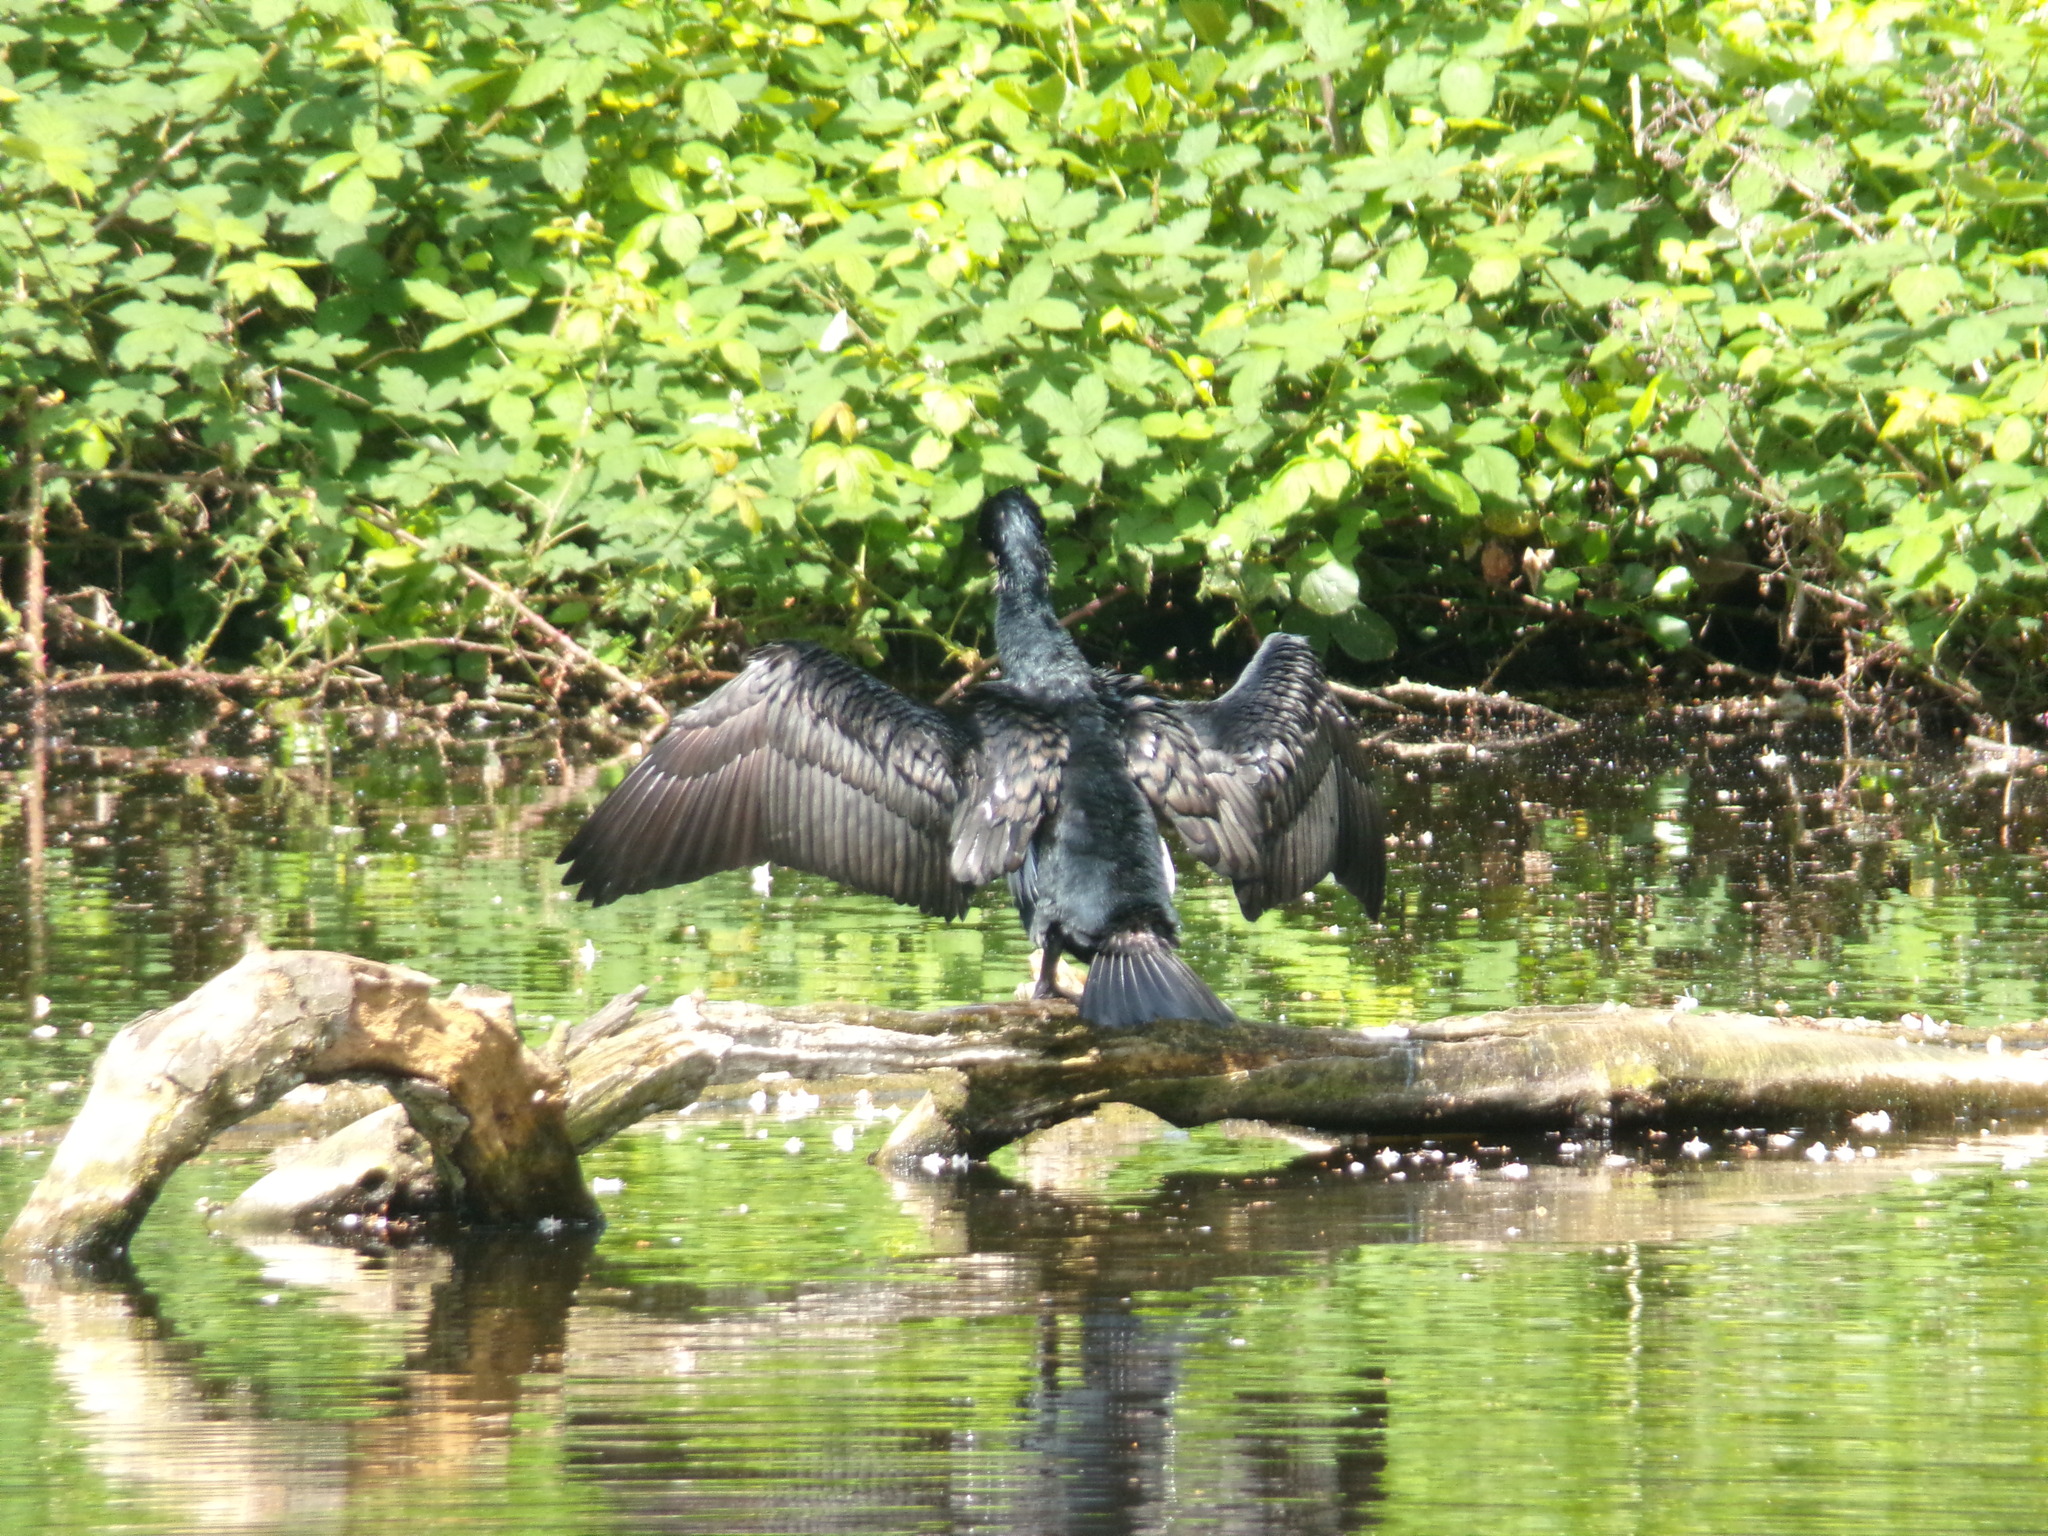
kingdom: Animalia
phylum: Chordata
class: Aves
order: Suliformes
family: Phalacrocoracidae
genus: Phalacrocorax
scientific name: Phalacrocorax carbo
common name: Great cormorant
